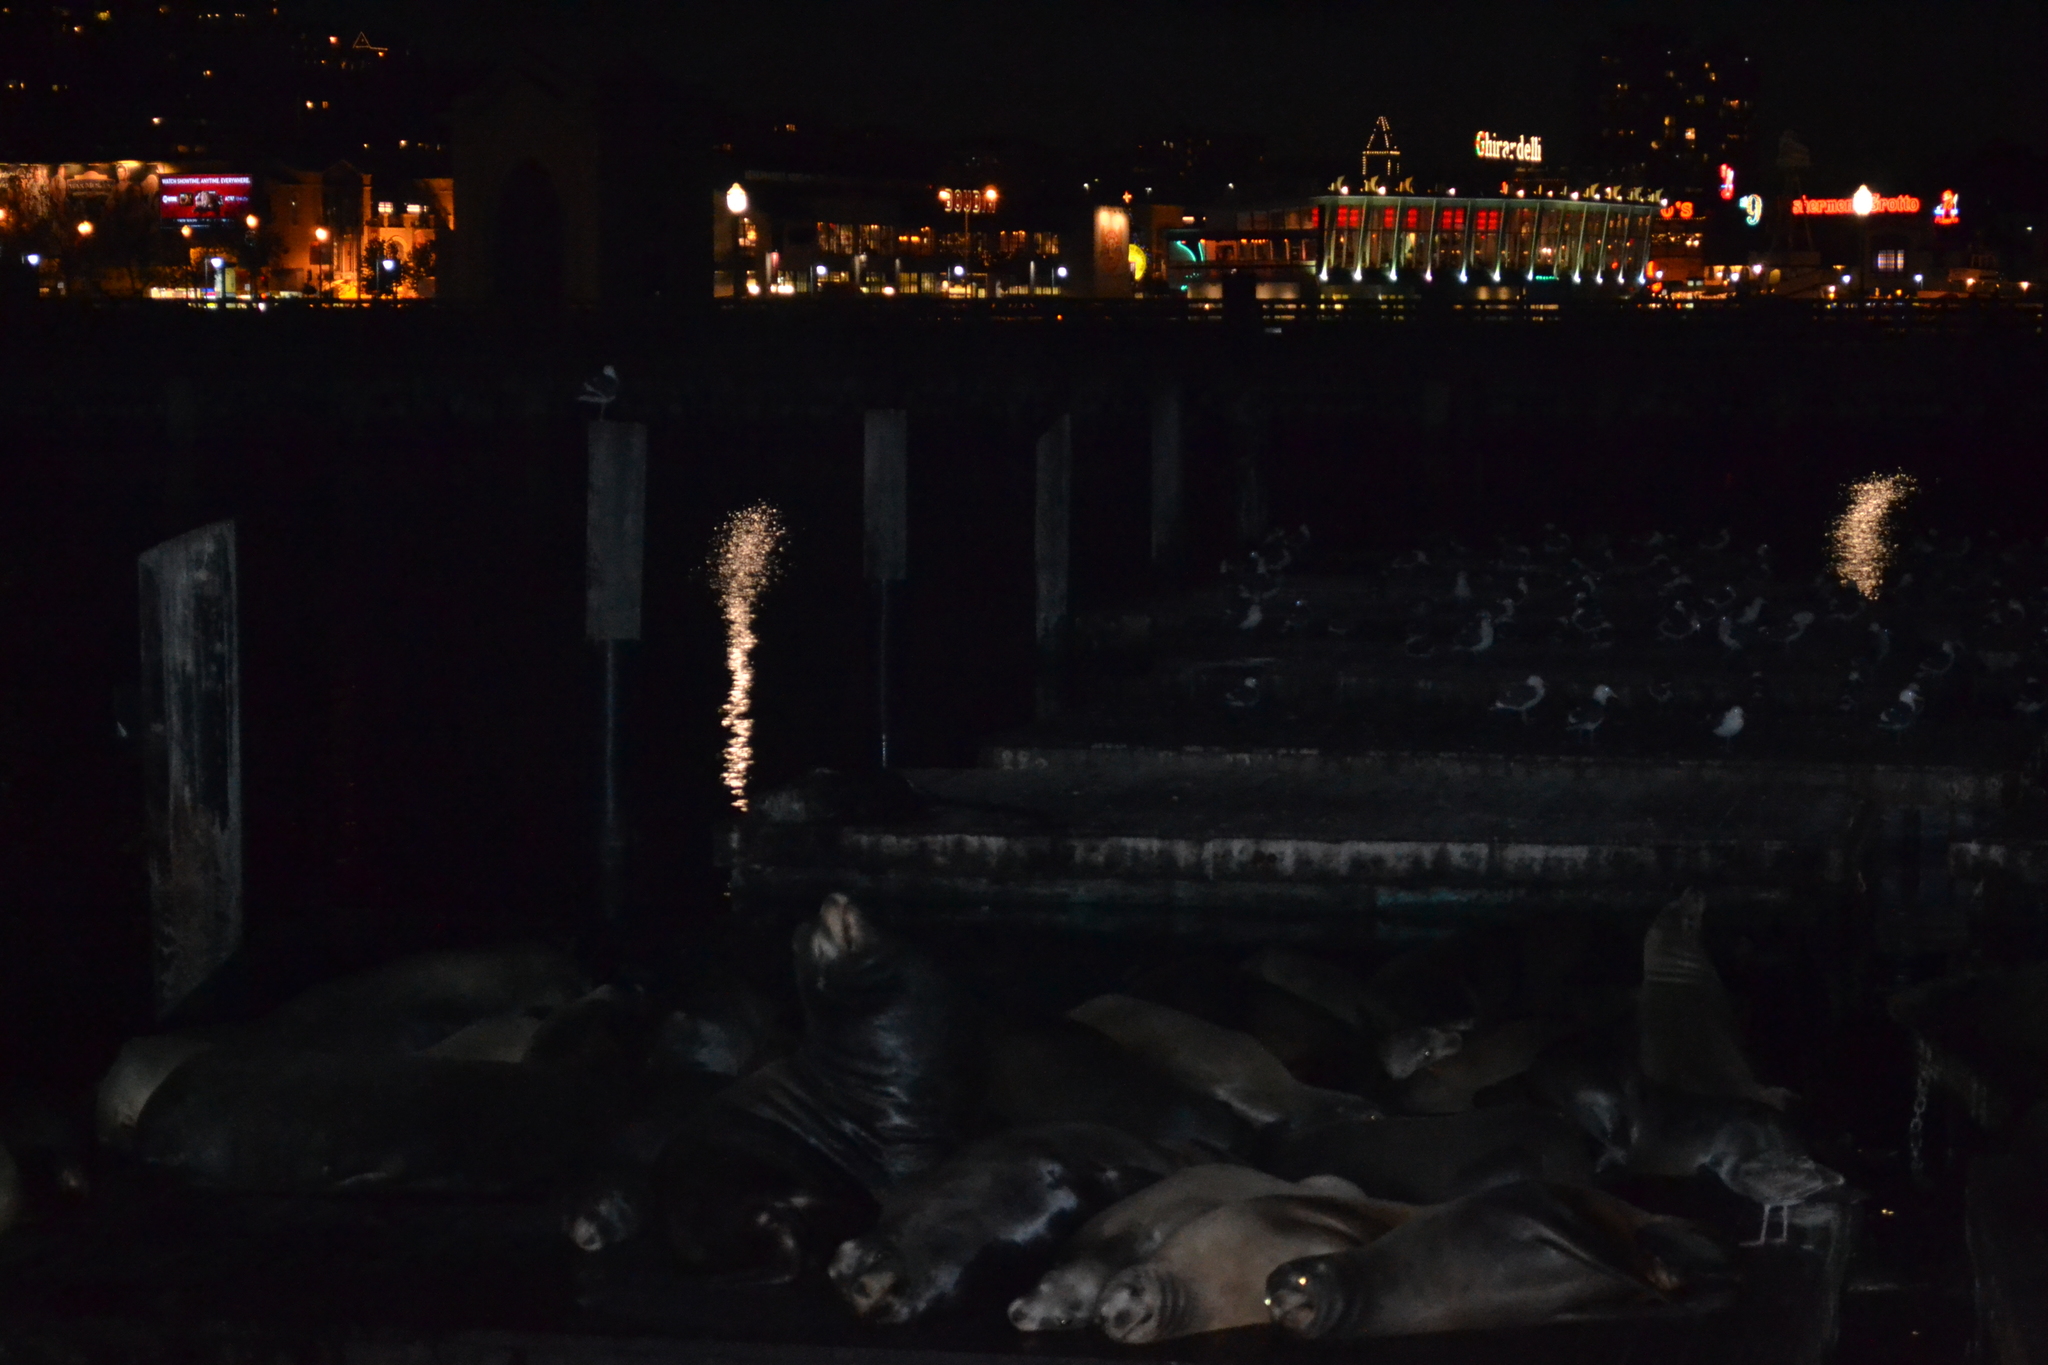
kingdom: Animalia
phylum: Chordata
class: Mammalia
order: Carnivora
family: Otariidae
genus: Zalophus
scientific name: Zalophus californianus
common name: California sea lion
